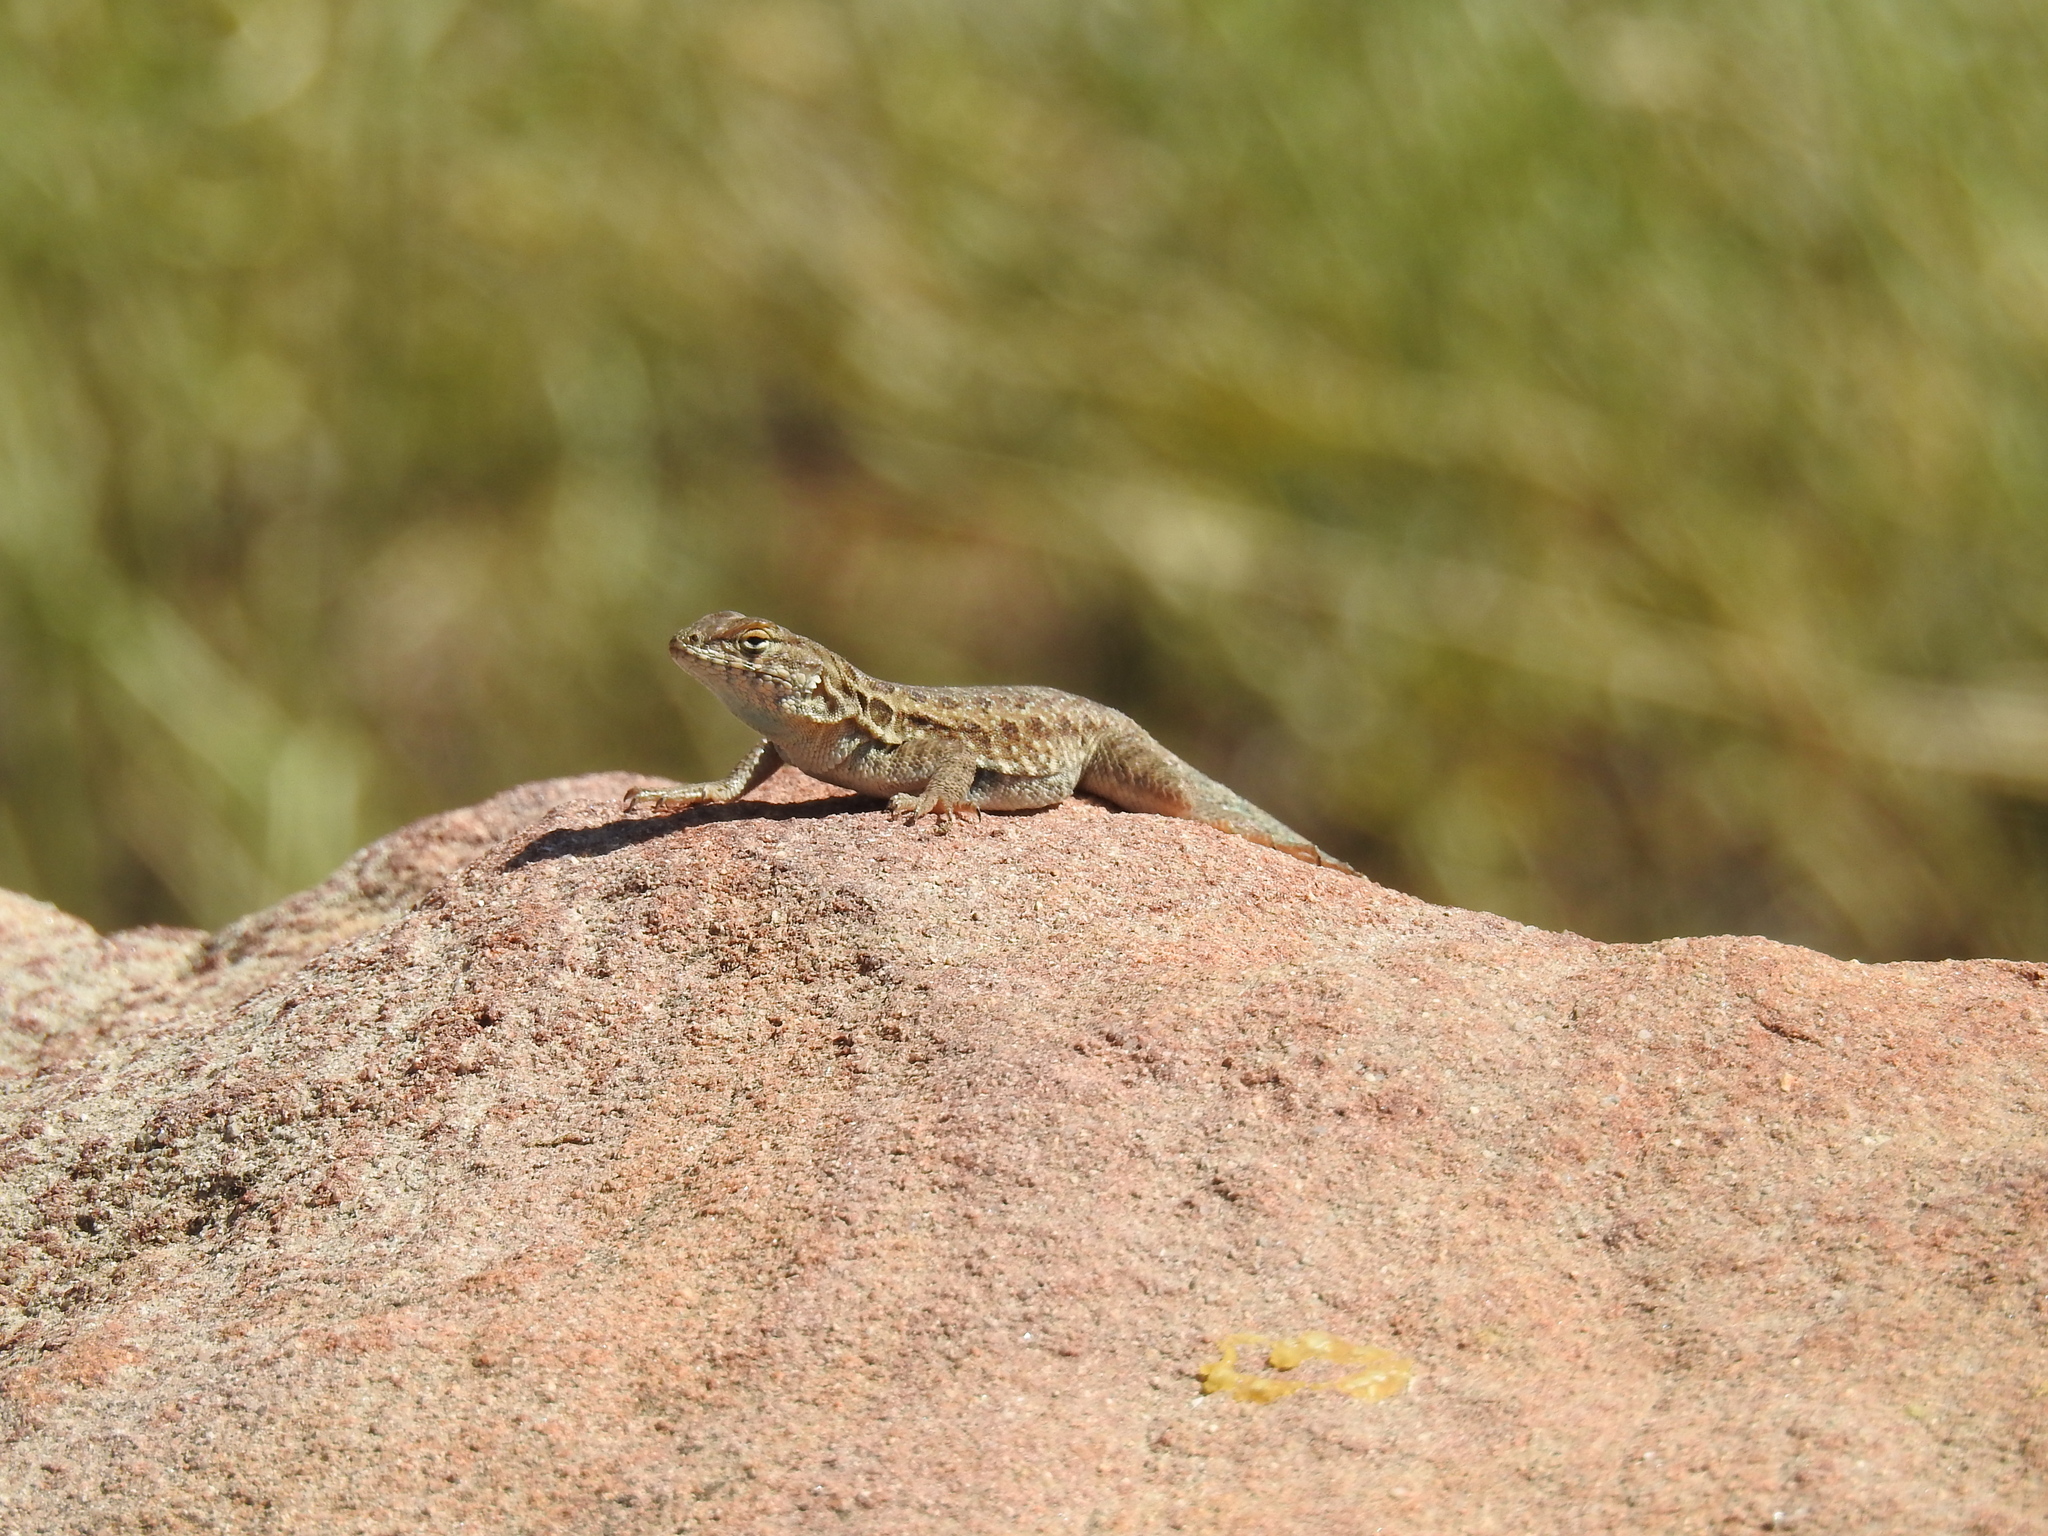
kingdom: Animalia
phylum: Chordata
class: Squamata
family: Phrynosomatidae
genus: Uta
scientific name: Uta stansburiana
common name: Side-blotched lizard
